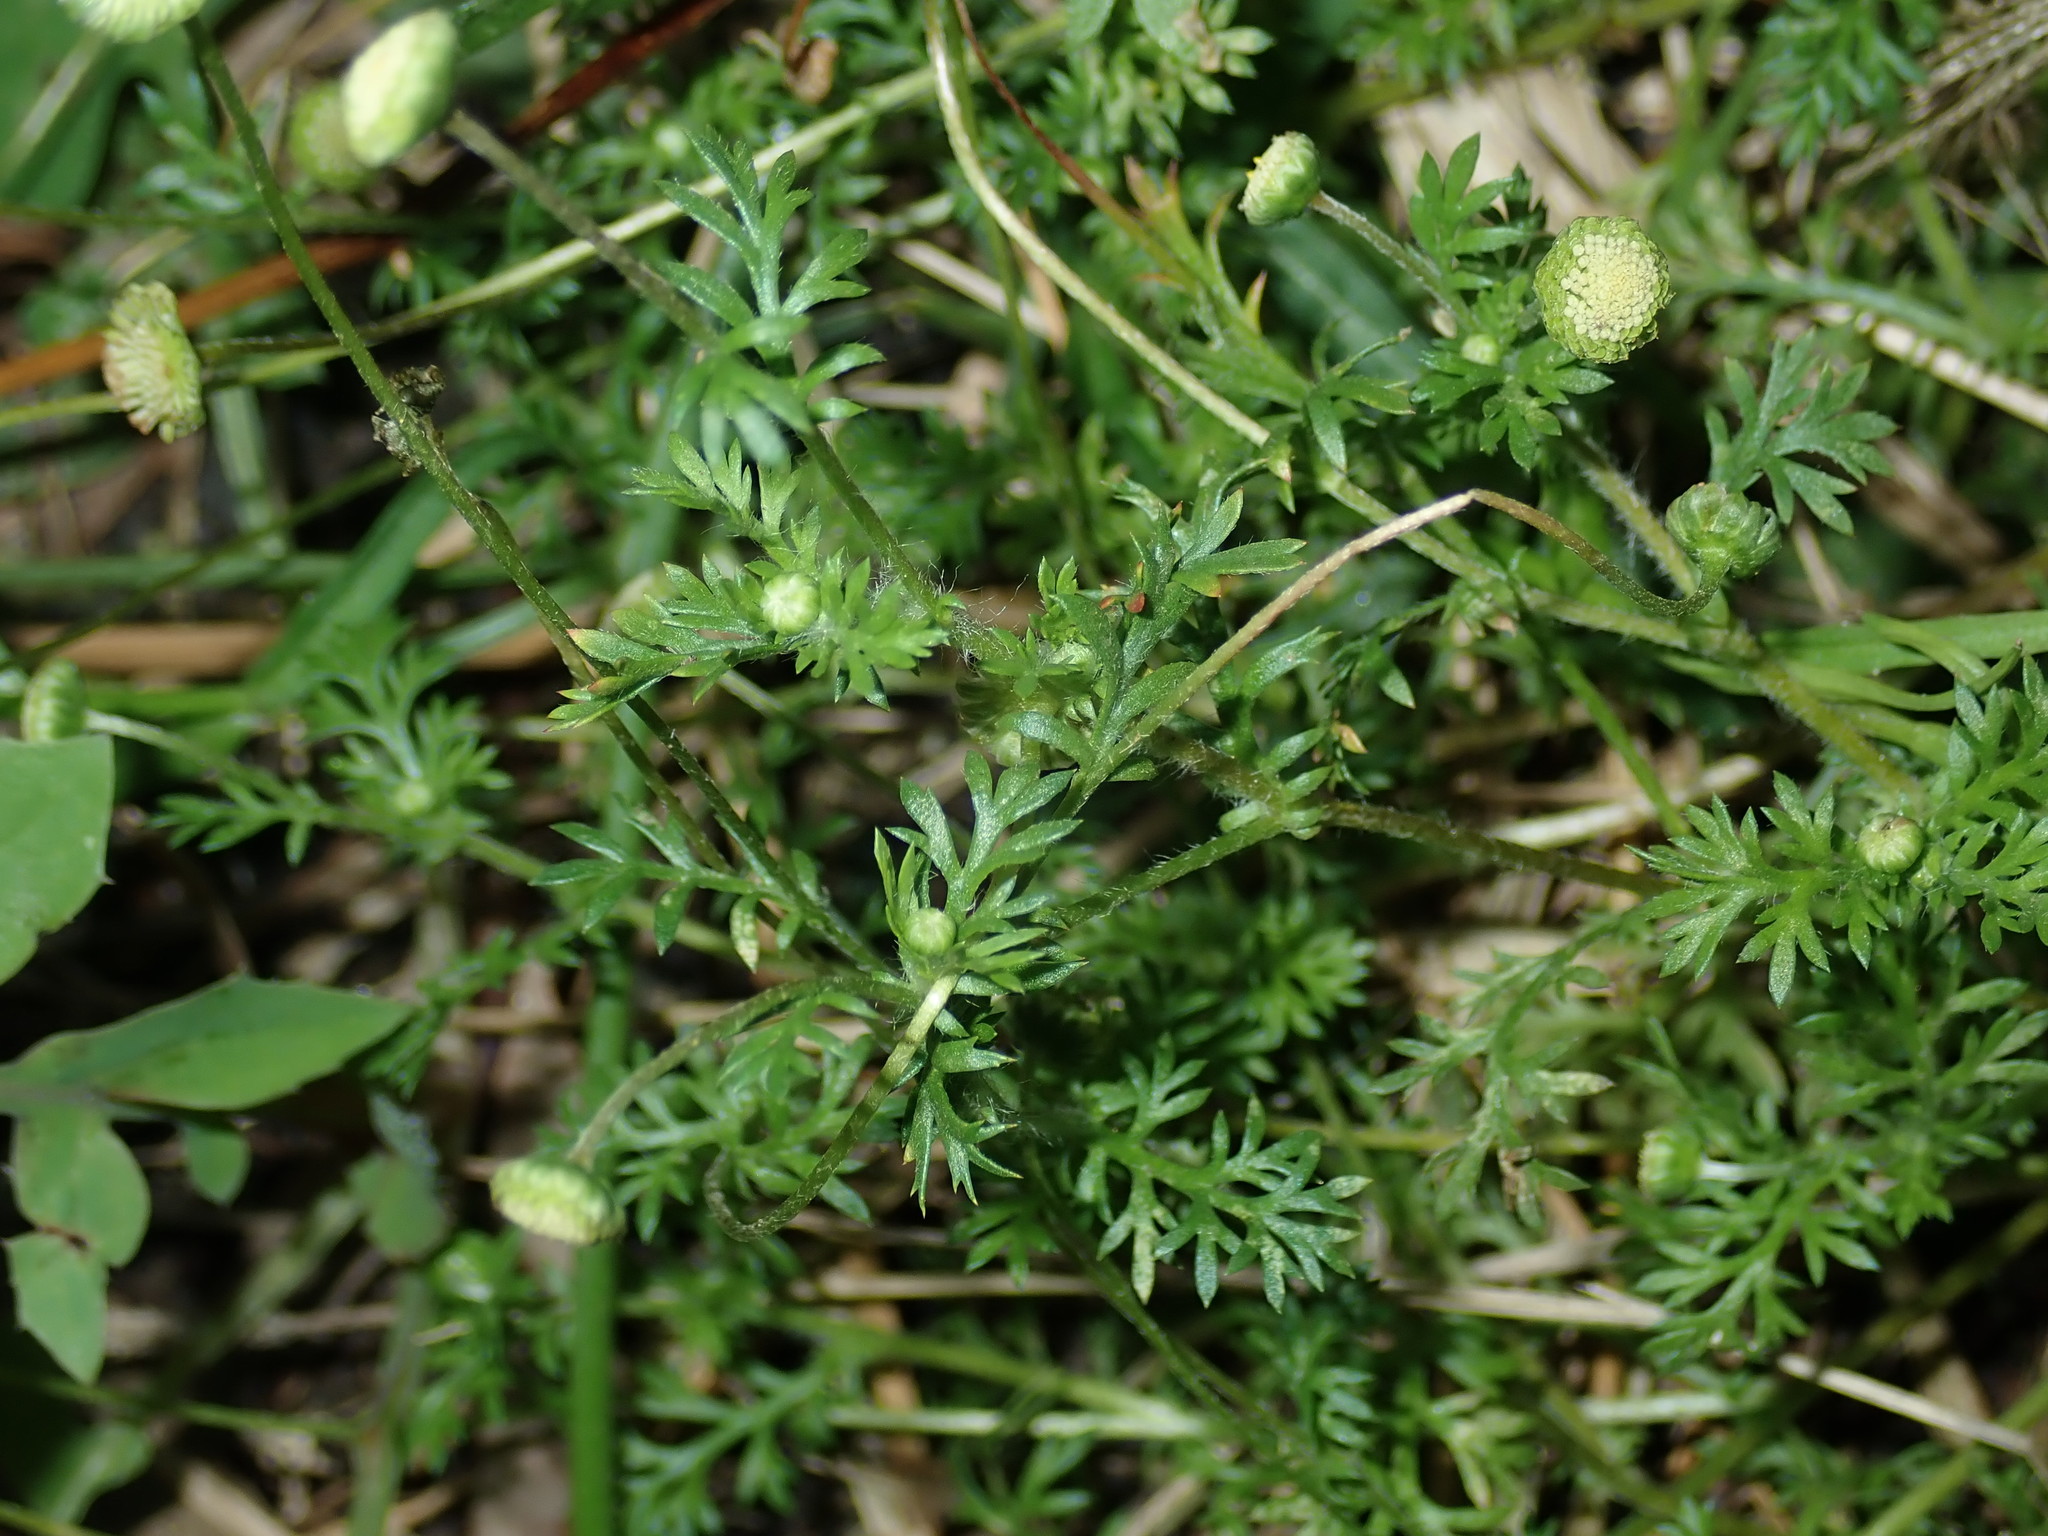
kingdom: Plantae
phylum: Tracheophyta
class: Magnoliopsida
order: Asterales
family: Asteraceae
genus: Cotula
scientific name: Cotula australis
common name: Australian waterbuttons
